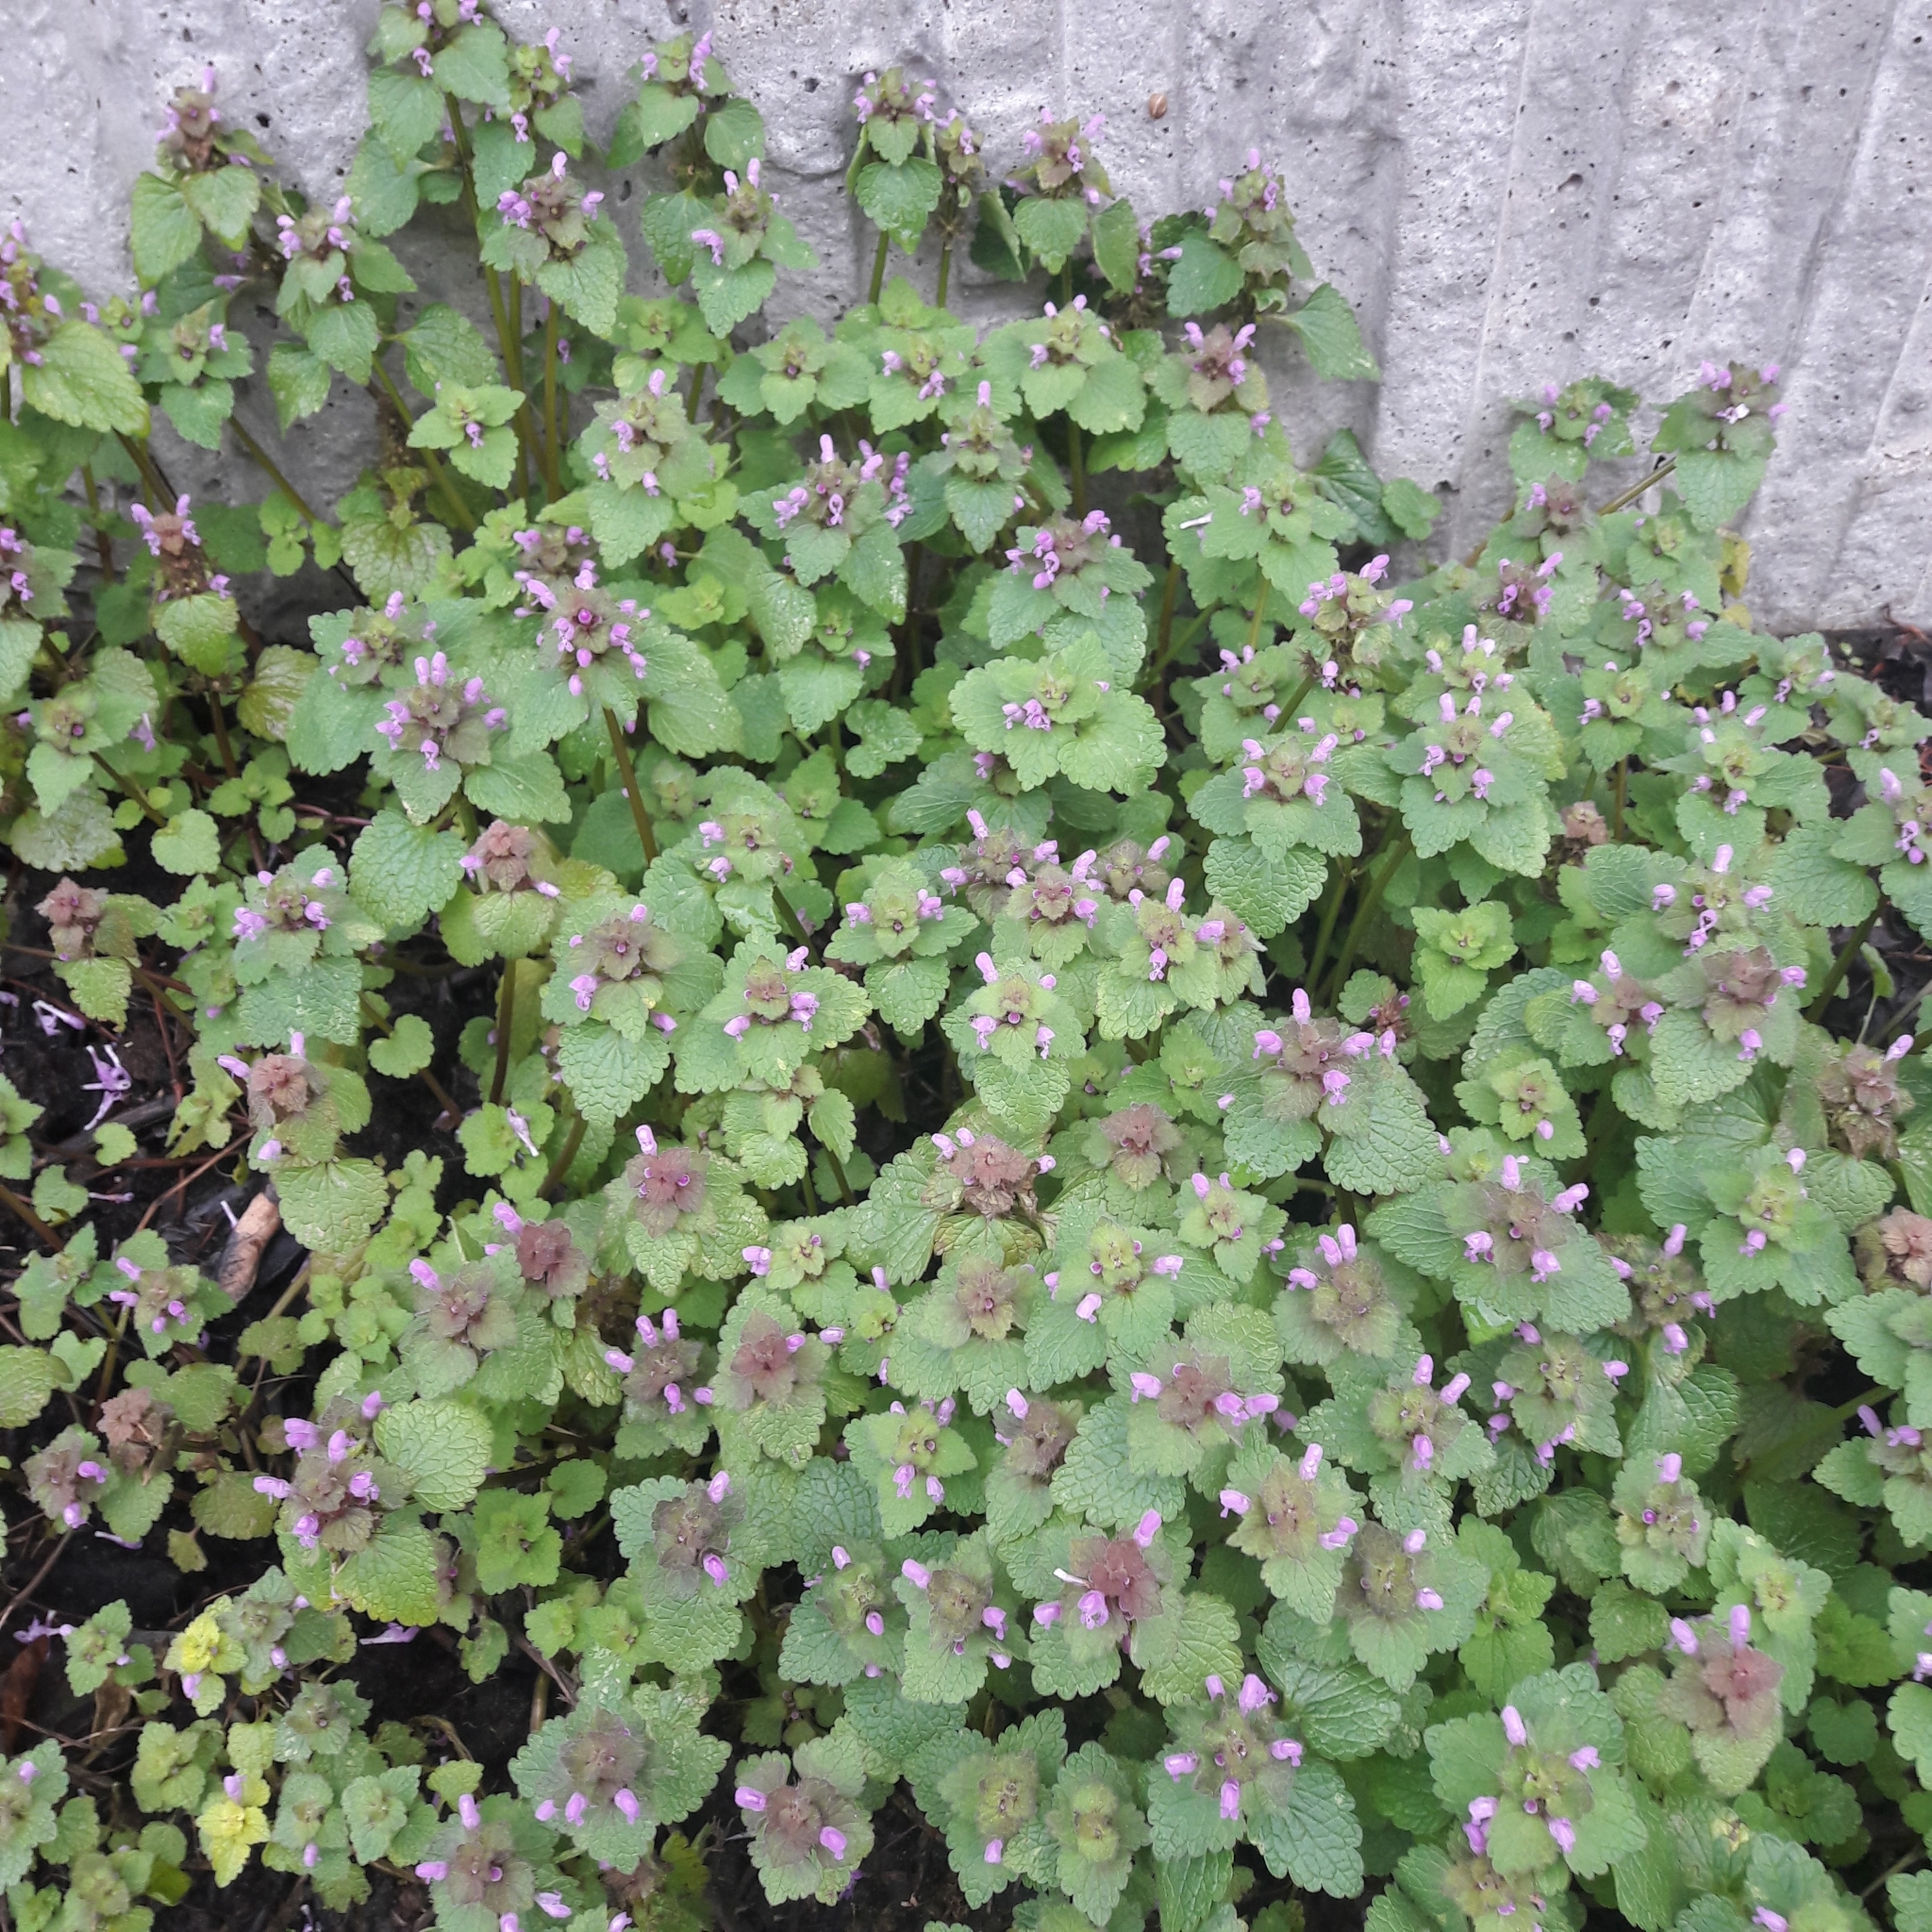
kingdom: Plantae
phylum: Tracheophyta
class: Magnoliopsida
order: Lamiales
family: Lamiaceae
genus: Lamium
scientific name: Lamium purpureum
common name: Red dead-nettle
